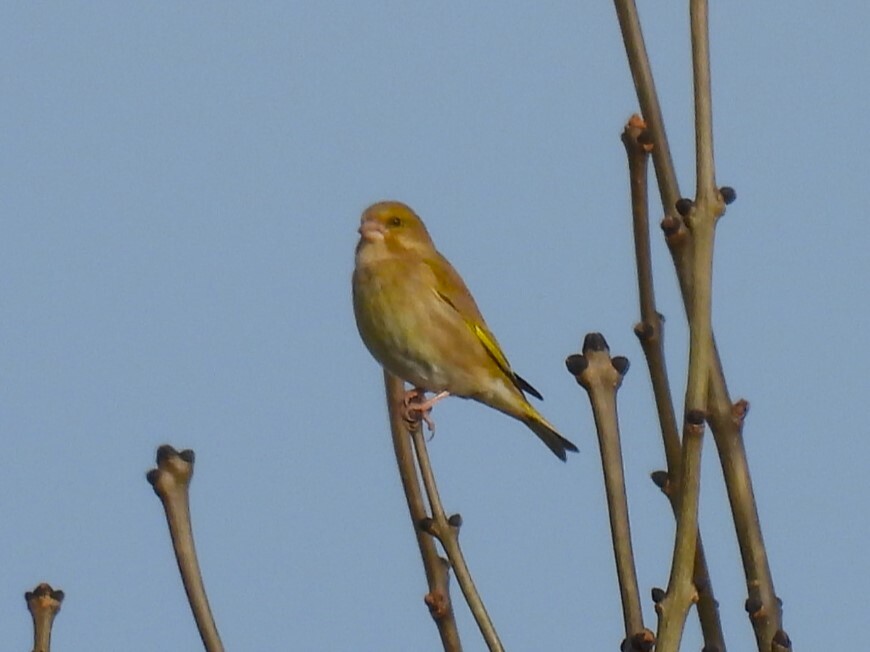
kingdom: Plantae
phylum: Tracheophyta
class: Liliopsida
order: Poales
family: Poaceae
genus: Chloris
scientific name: Chloris chloris
